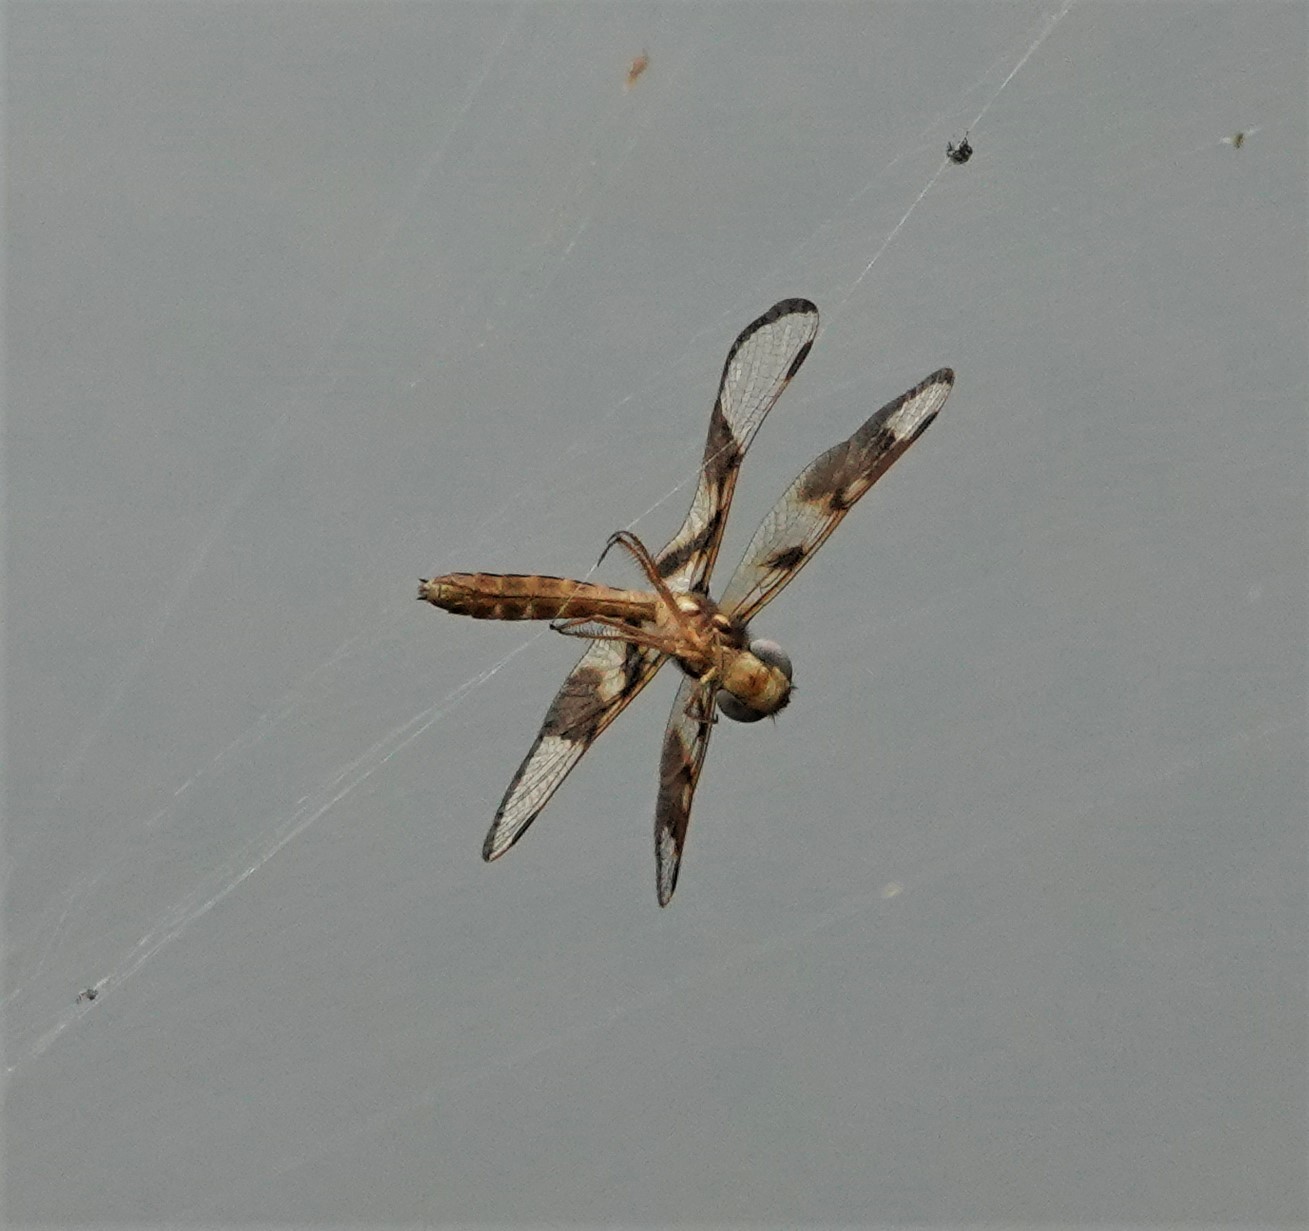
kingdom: Animalia
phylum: Arthropoda
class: Insecta
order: Odonata
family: Libellulidae
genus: Perithemis
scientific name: Perithemis tenera
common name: Eastern amberwing
